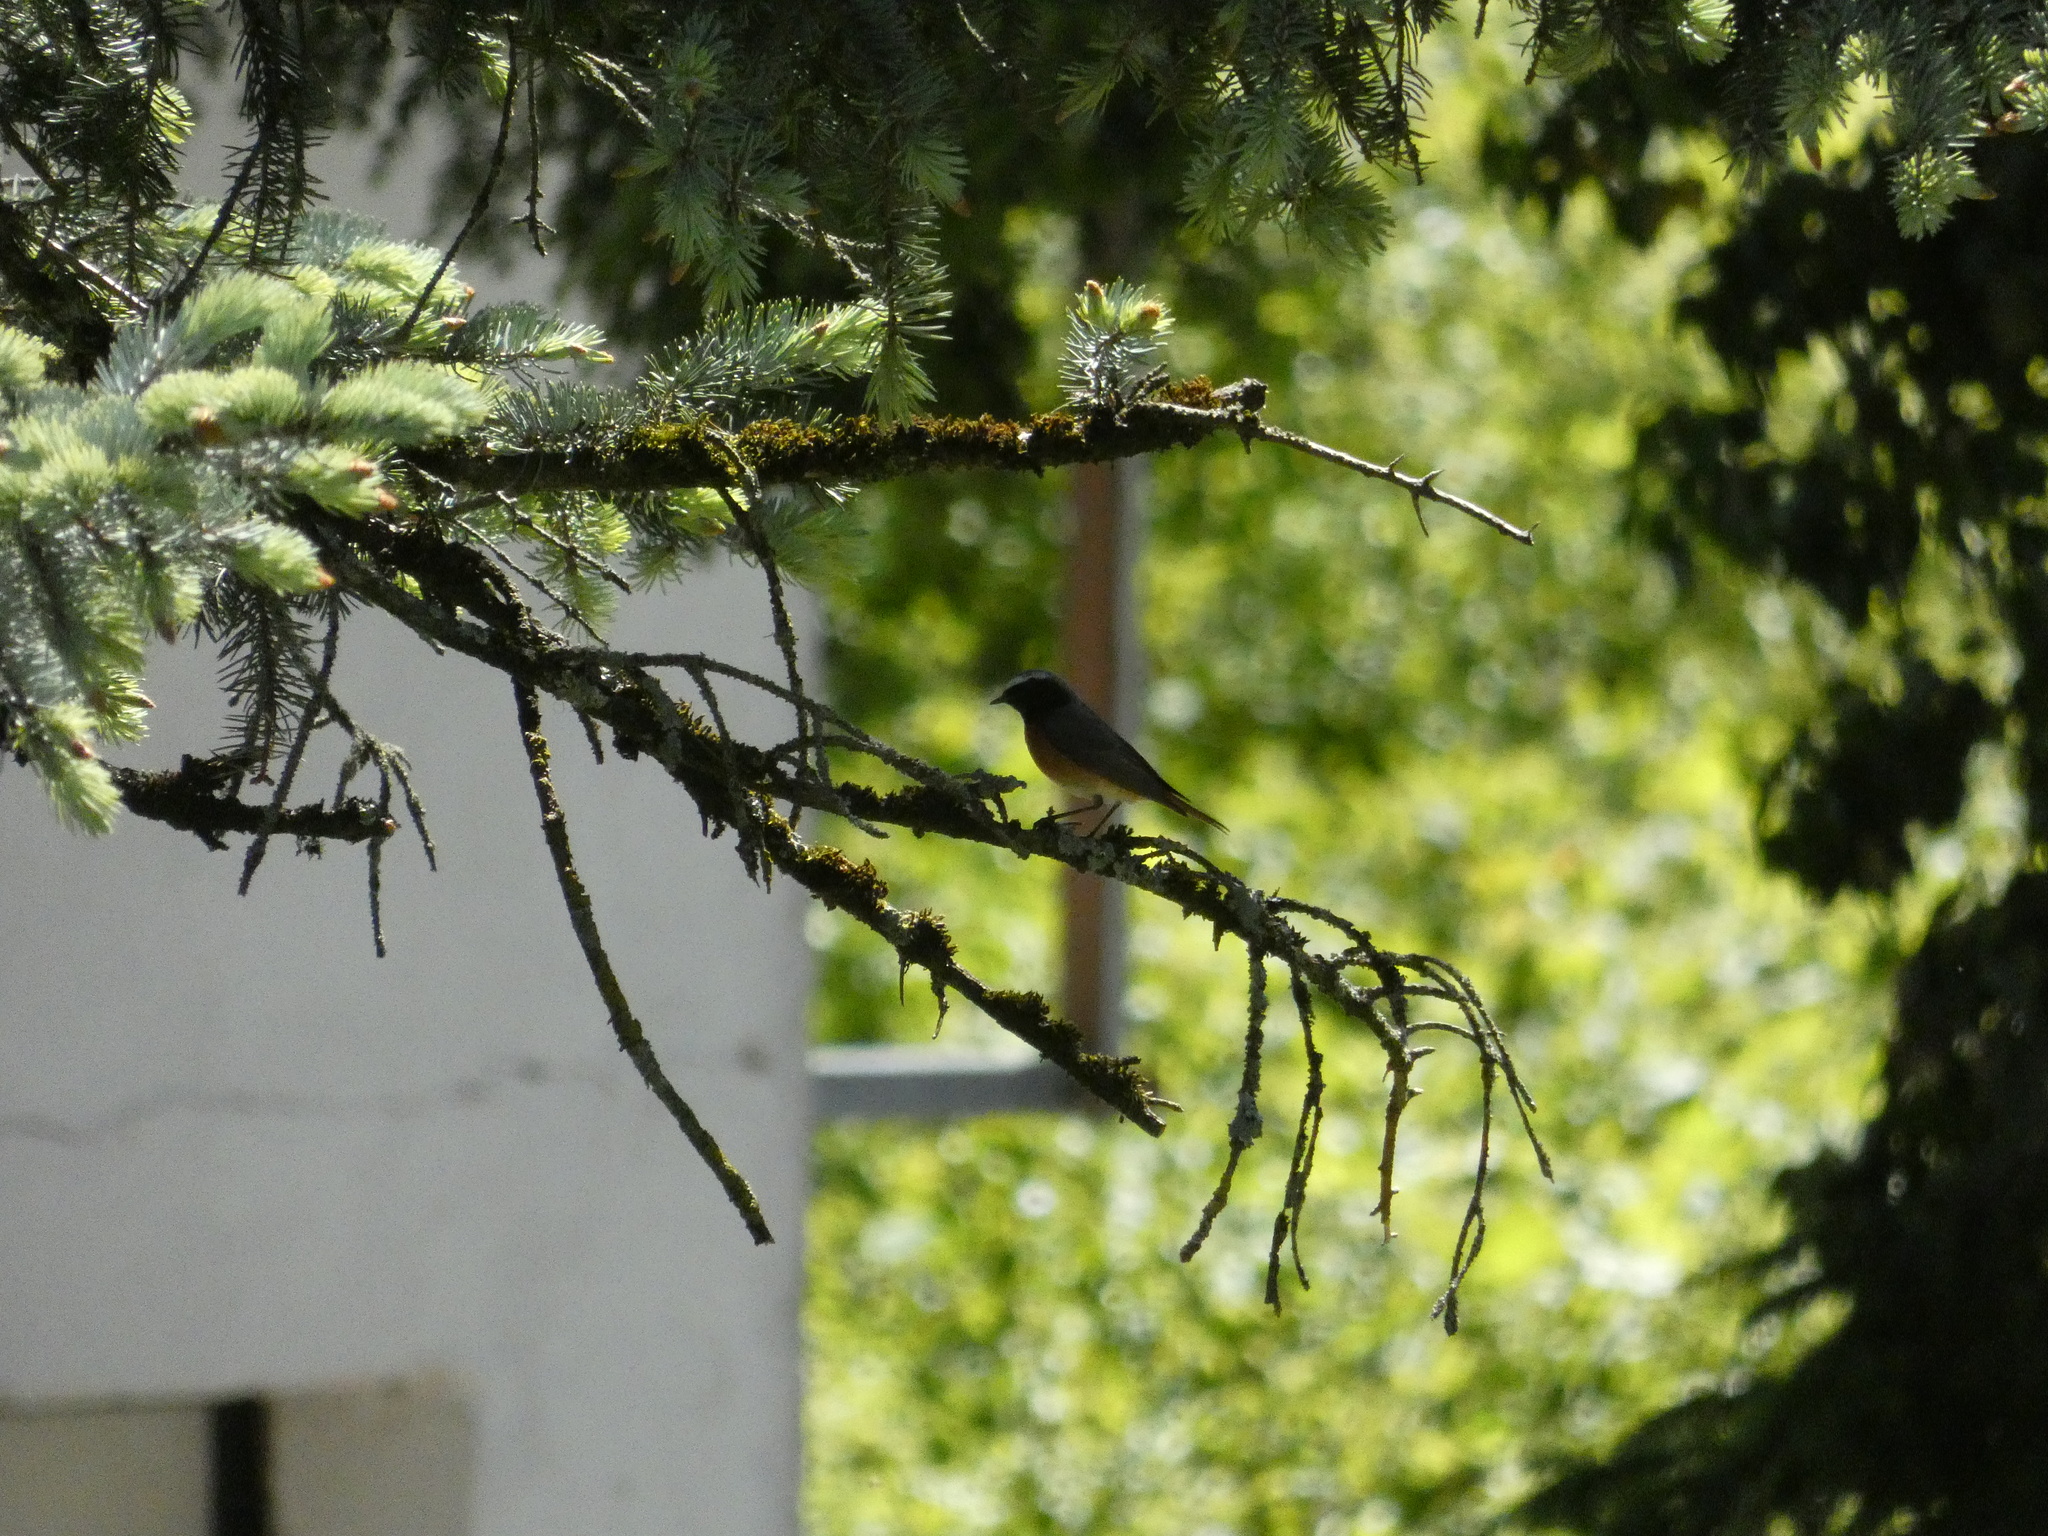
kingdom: Animalia
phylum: Chordata
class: Aves
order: Passeriformes
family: Muscicapidae
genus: Phoenicurus
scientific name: Phoenicurus phoenicurus
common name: Common redstart
